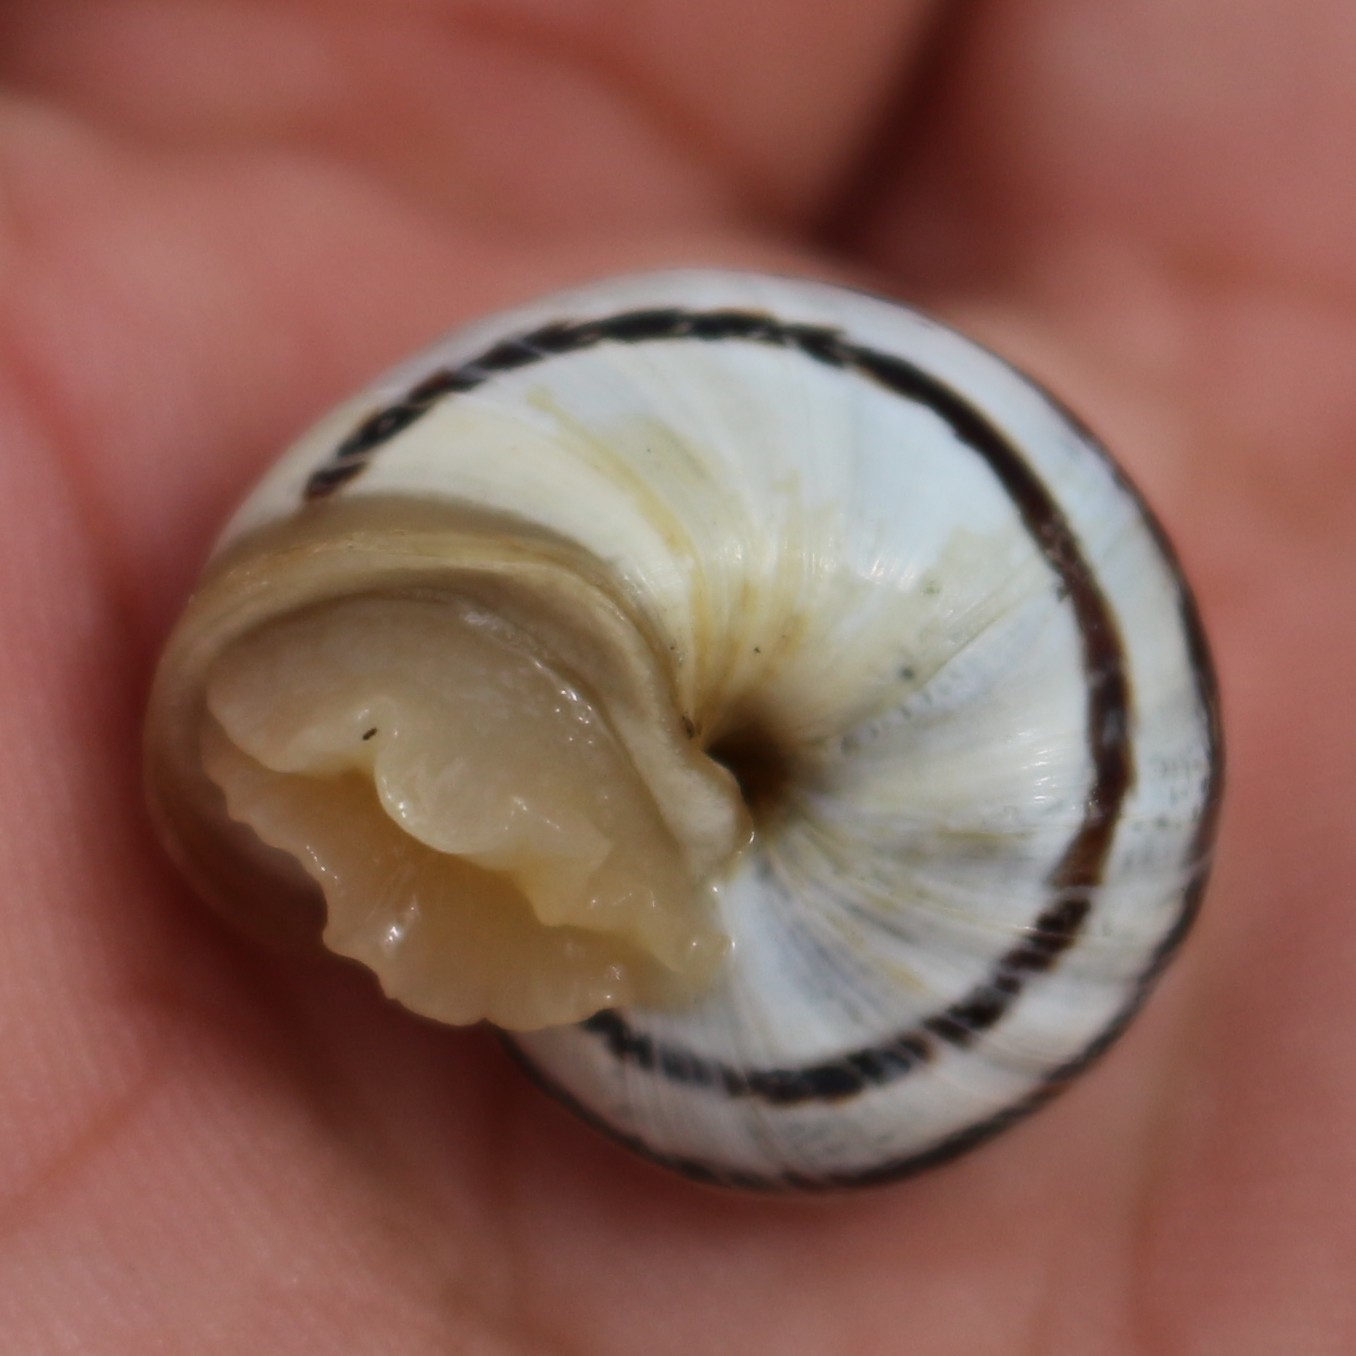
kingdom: Animalia
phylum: Mollusca
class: Gastropoda
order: Stylommatophora
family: Helicidae
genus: Eobania
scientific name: Eobania vermiculata
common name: Chocolateband snail
